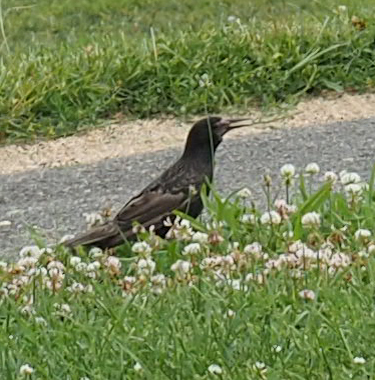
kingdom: Animalia
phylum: Chordata
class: Aves
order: Passeriformes
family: Sturnidae
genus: Sturnus
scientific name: Sturnus vulgaris
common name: Common starling
